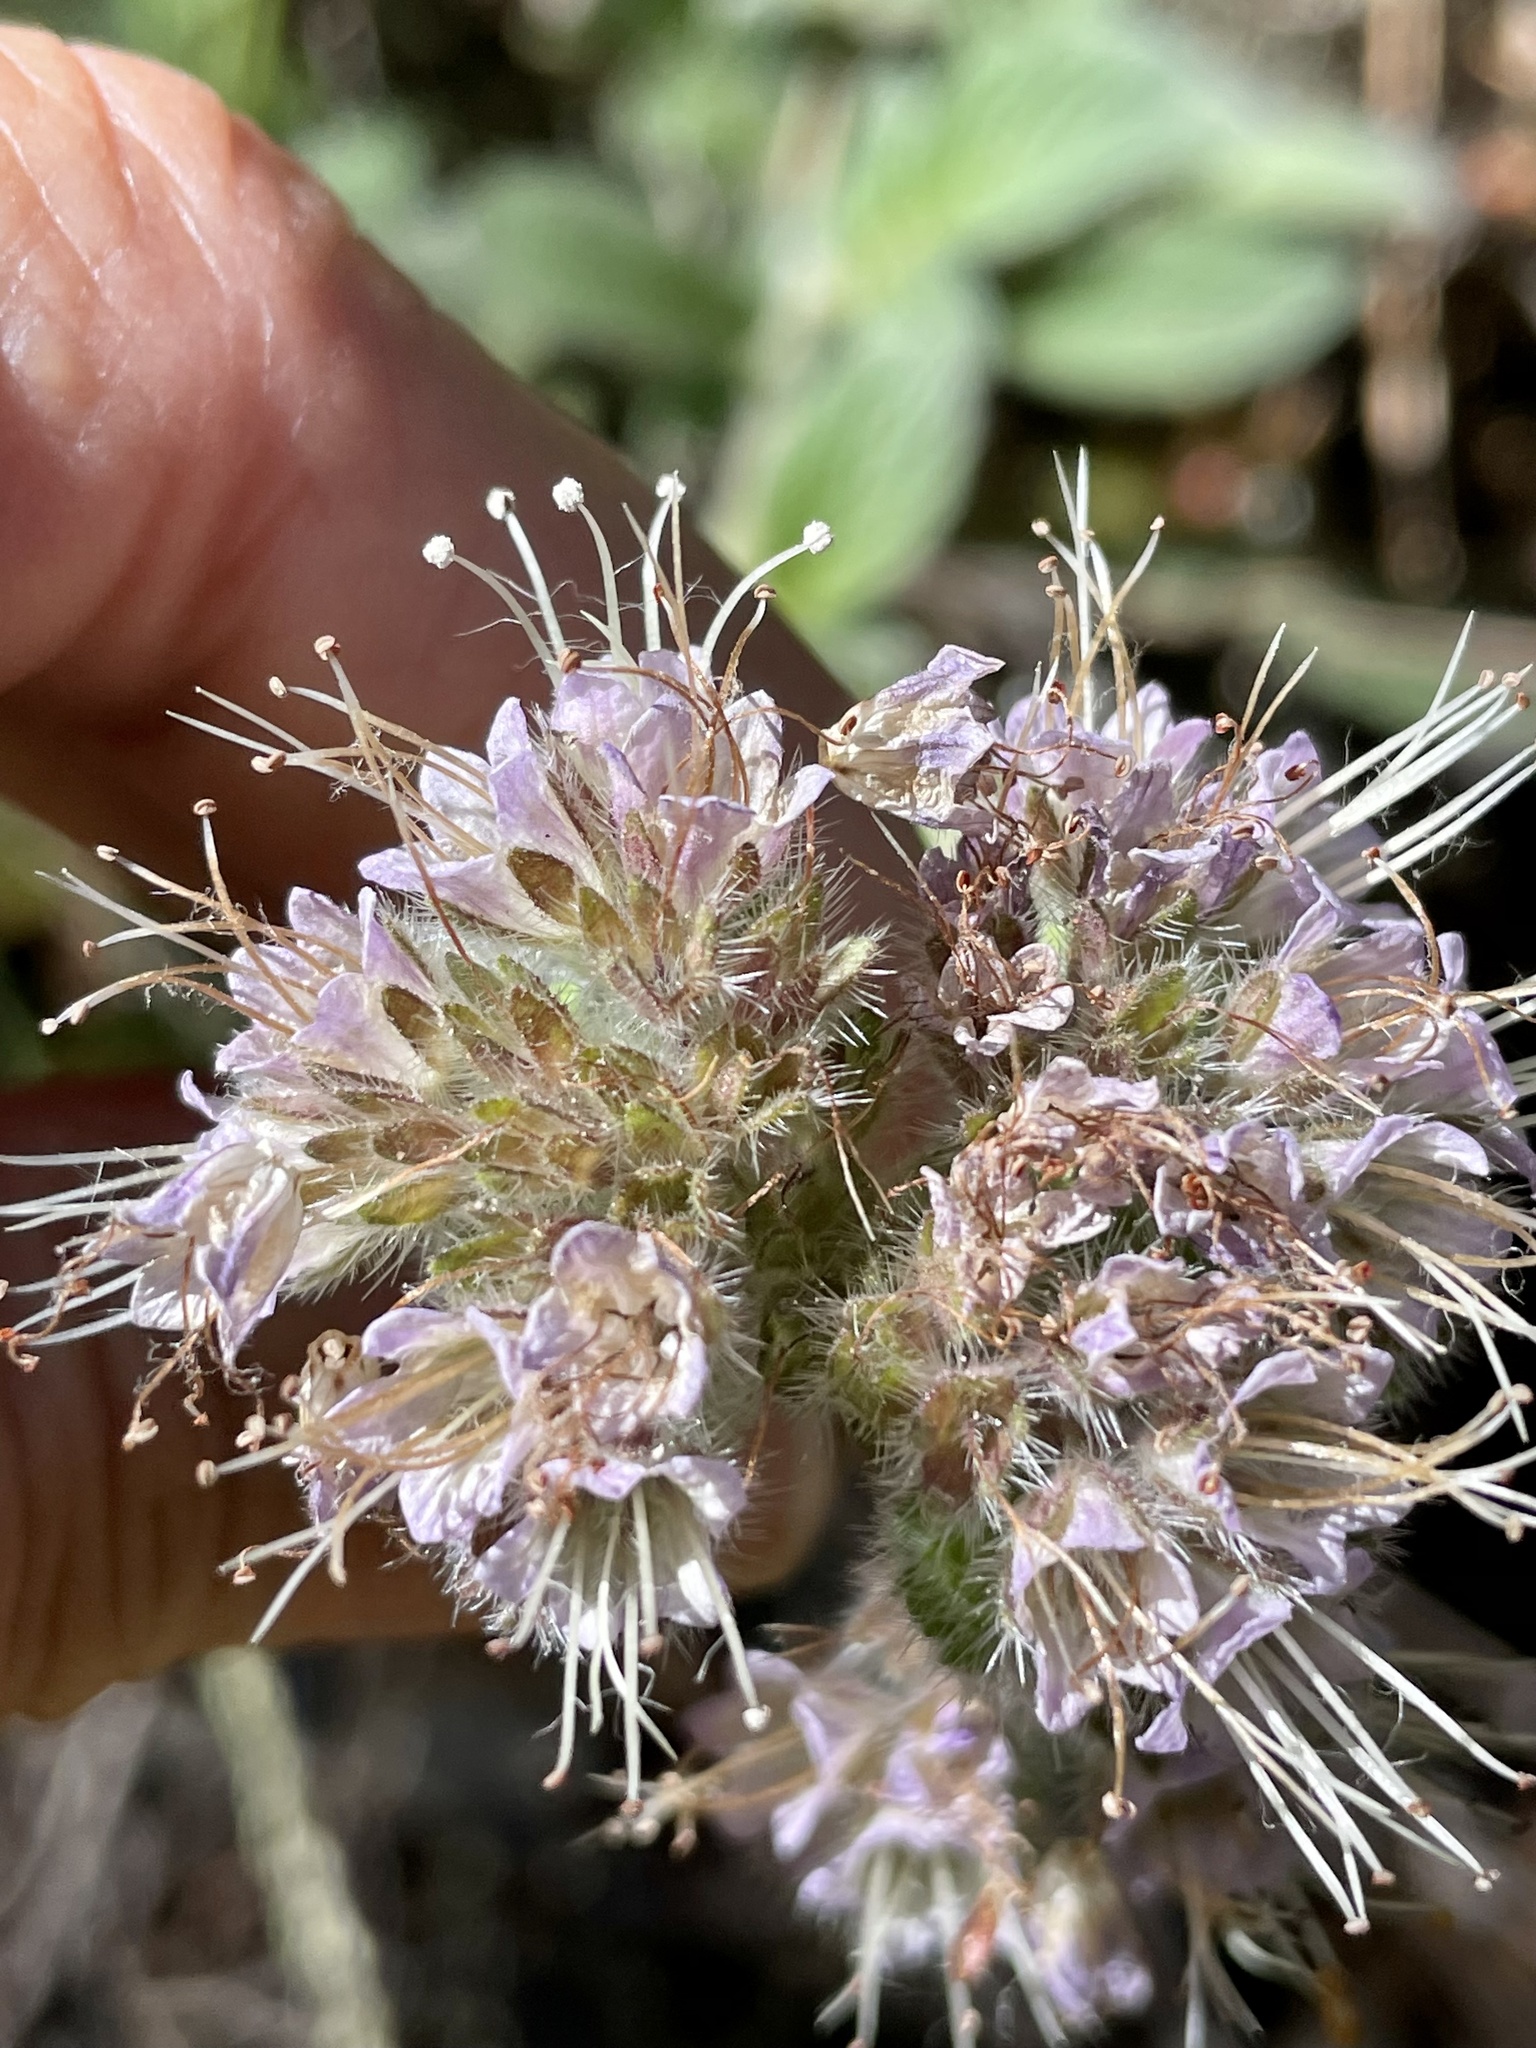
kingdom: Plantae
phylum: Tracheophyta
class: Magnoliopsida
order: Boraginales
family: Hydrophyllaceae
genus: Phacelia
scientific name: Phacelia californica
